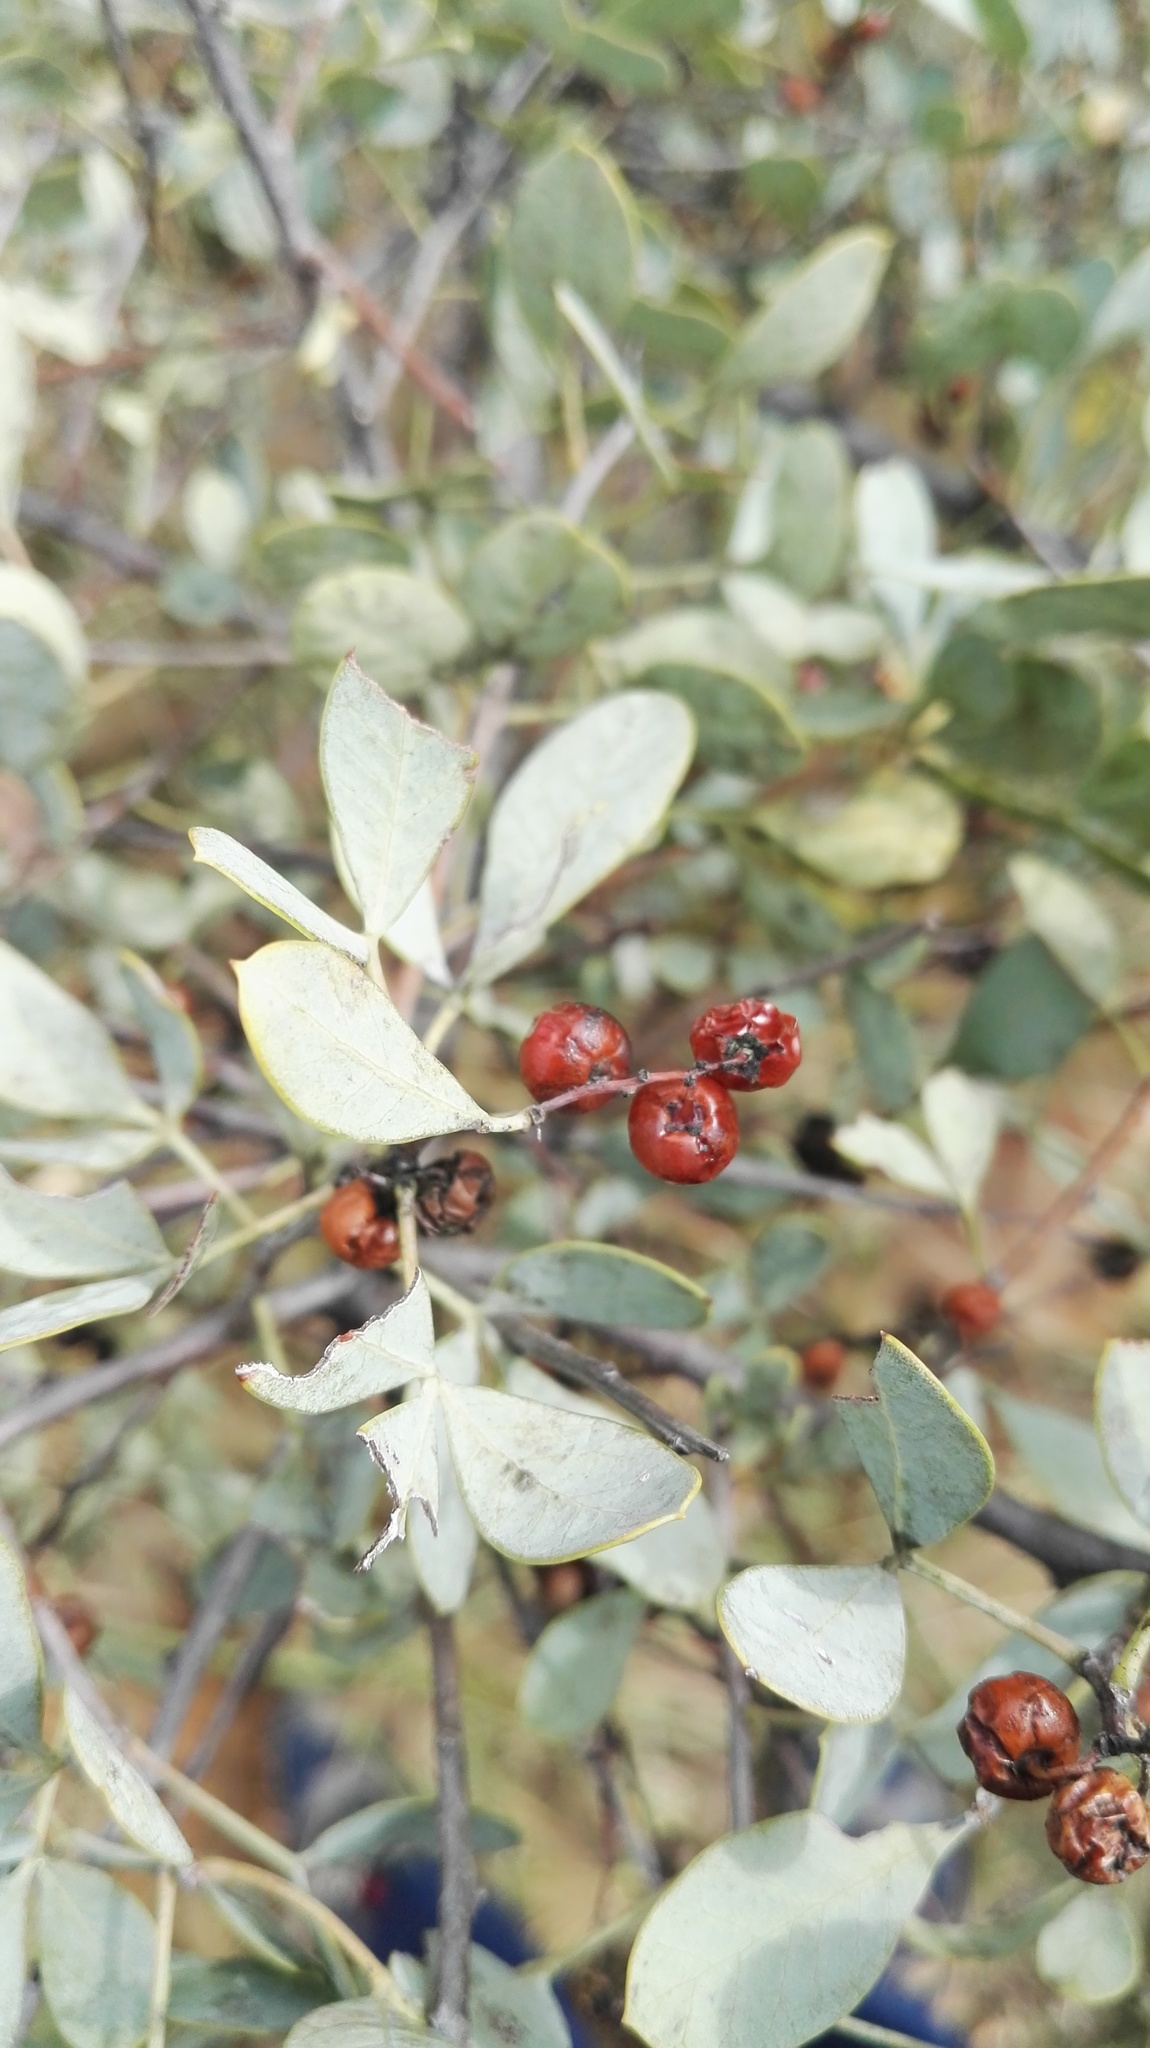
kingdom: Plantae
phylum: Tracheophyta
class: Magnoliopsida
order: Sapindales
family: Anacardiaceae
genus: Searsia
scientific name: Searsia zeyheri
